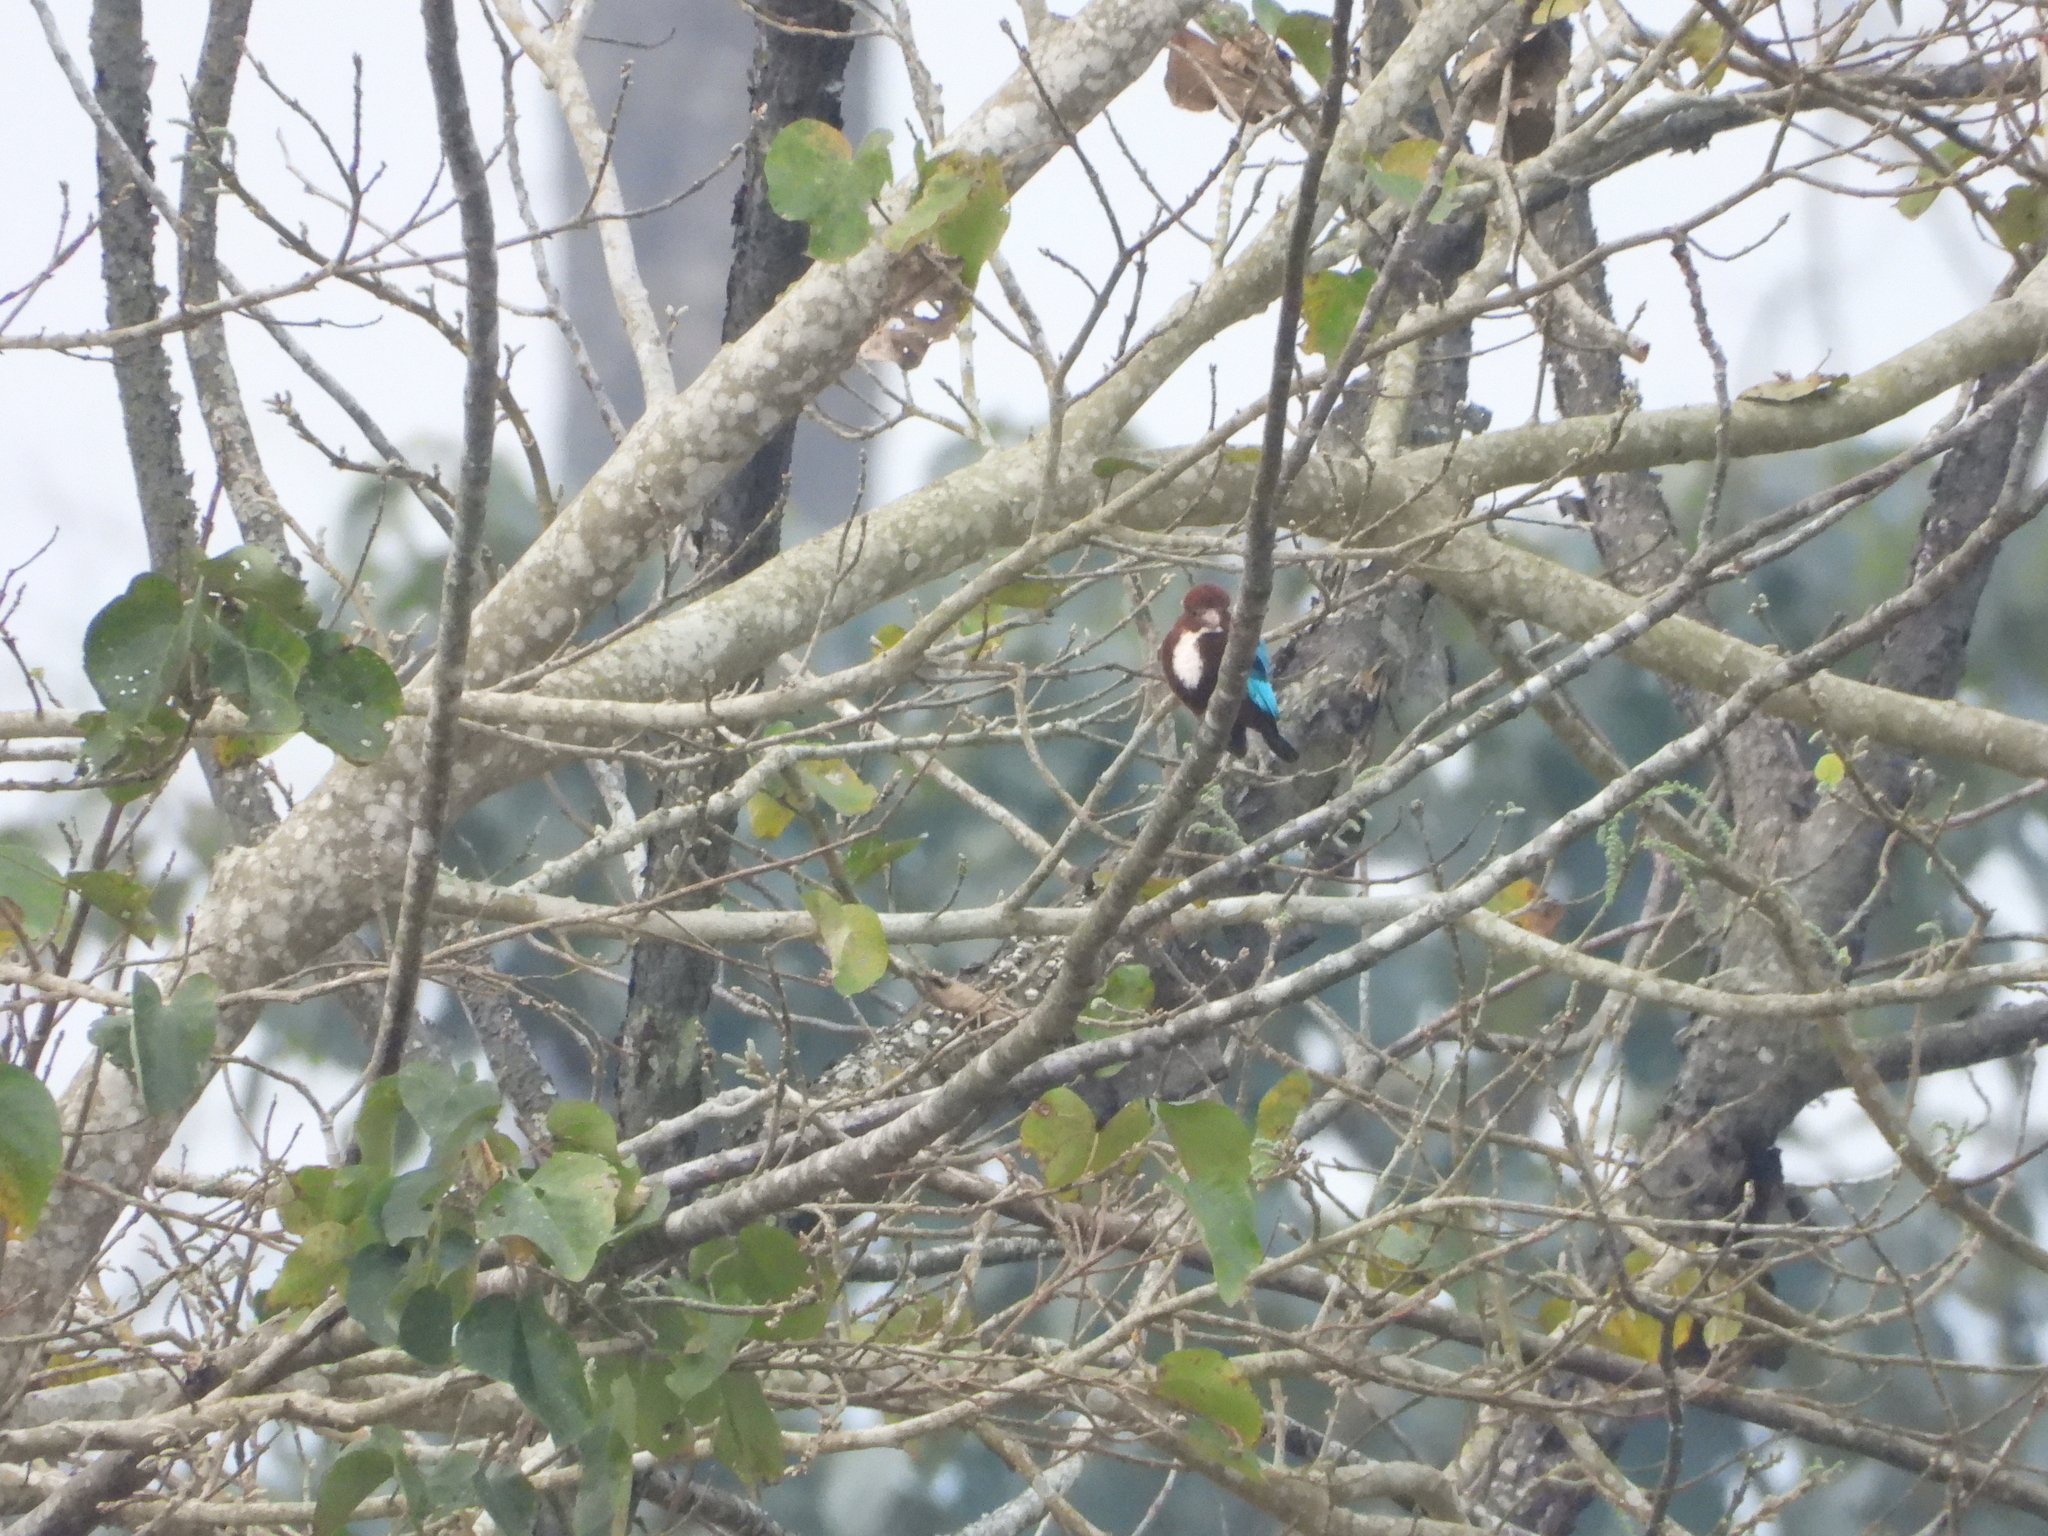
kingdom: Animalia
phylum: Chordata
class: Aves
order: Coraciiformes
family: Alcedinidae
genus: Halcyon
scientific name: Halcyon smyrnensis
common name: White-throated kingfisher
